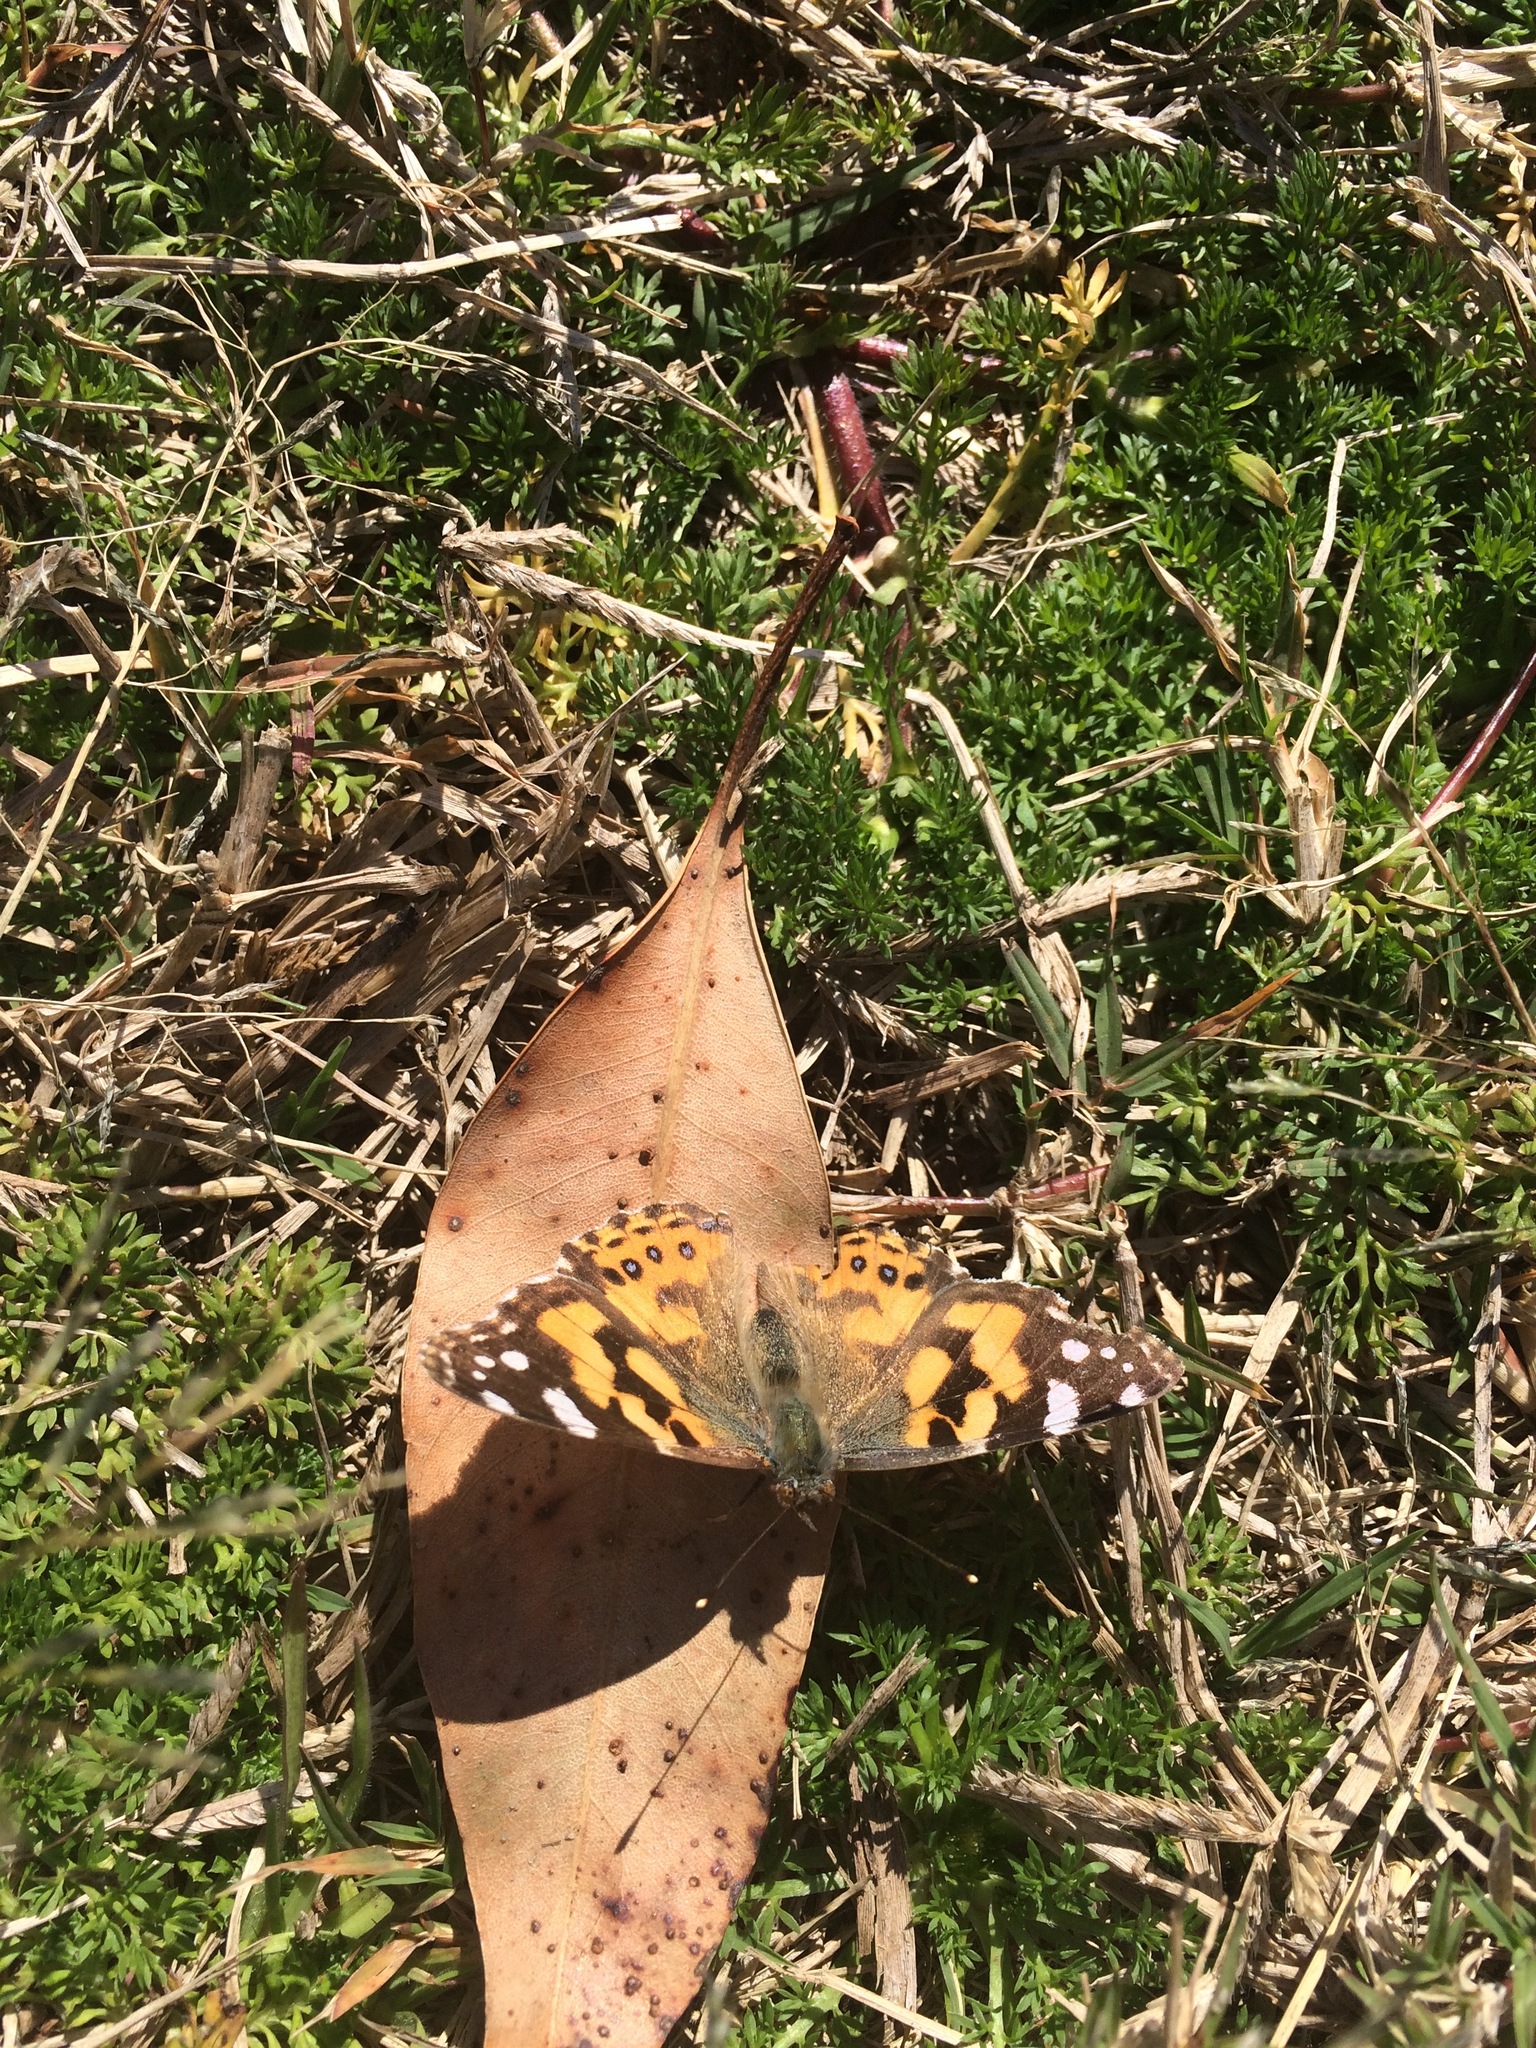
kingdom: Animalia
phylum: Arthropoda
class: Insecta
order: Lepidoptera
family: Nymphalidae
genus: Vanessa
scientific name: Vanessa kershawi
